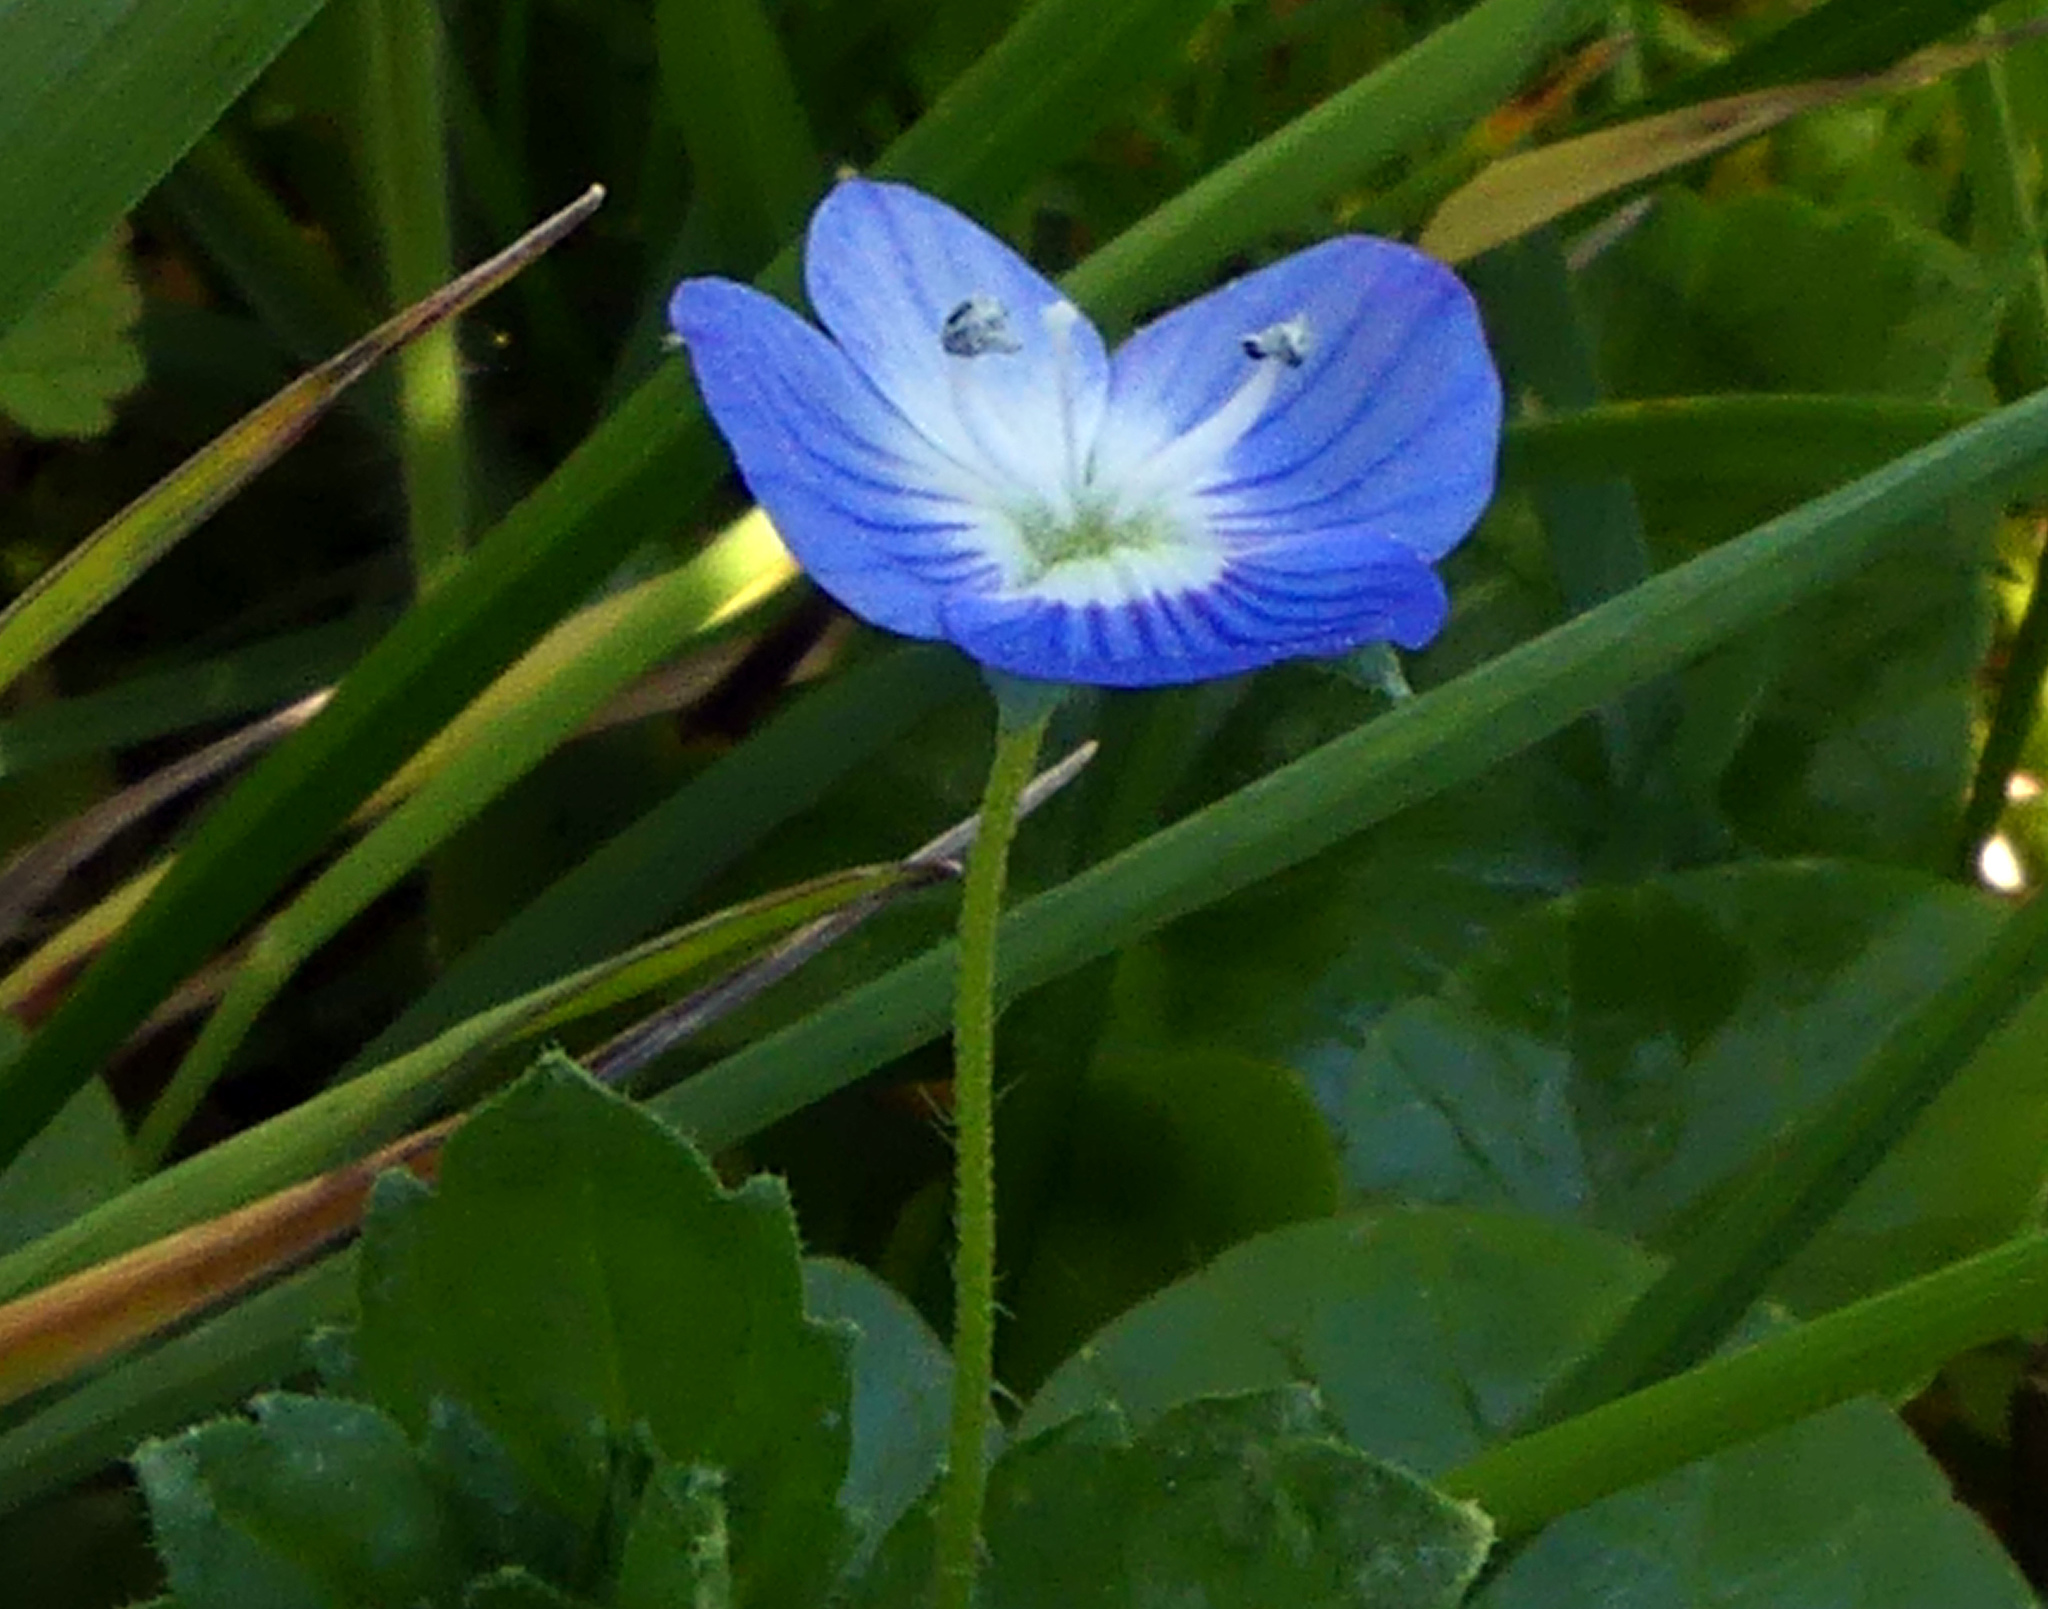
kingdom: Plantae
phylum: Tracheophyta
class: Magnoliopsida
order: Lamiales
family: Plantaginaceae
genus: Veronica
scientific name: Veronica persica
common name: Common field-speedwell
